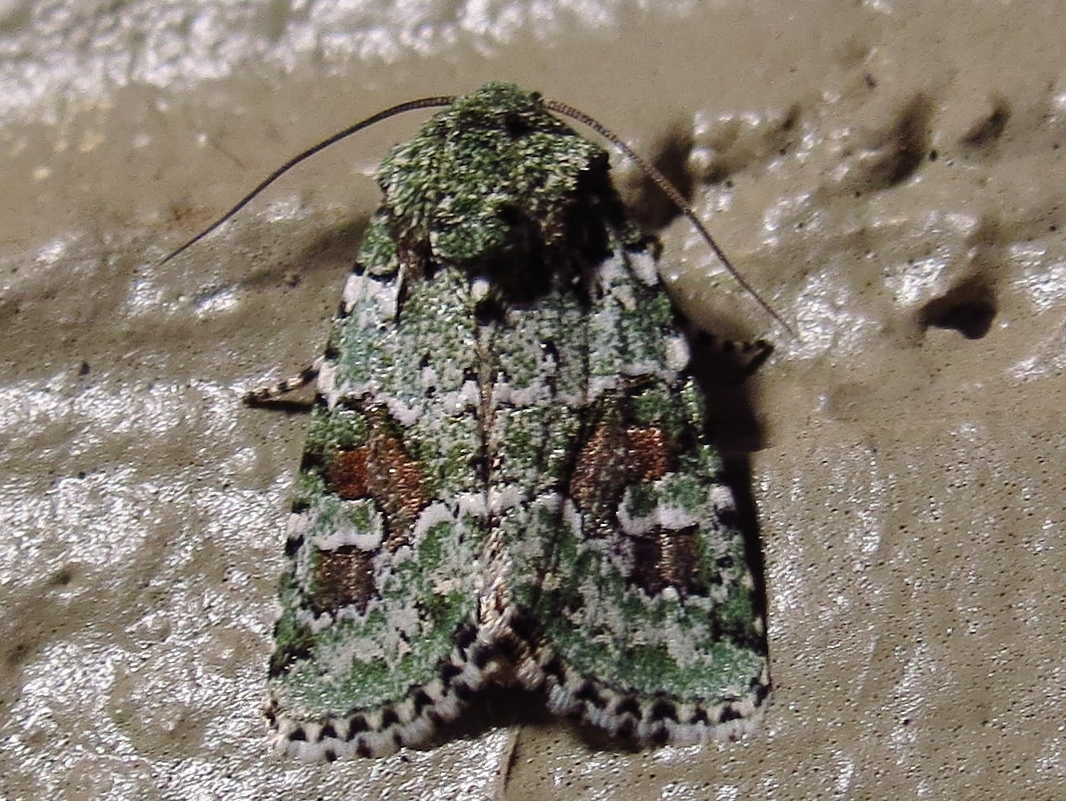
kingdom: Animalia
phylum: Arthropoda
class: Insecta
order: Lepidoptera
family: Noctuidae
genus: Lacinipolia
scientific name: Lacinipolia laudabilis
